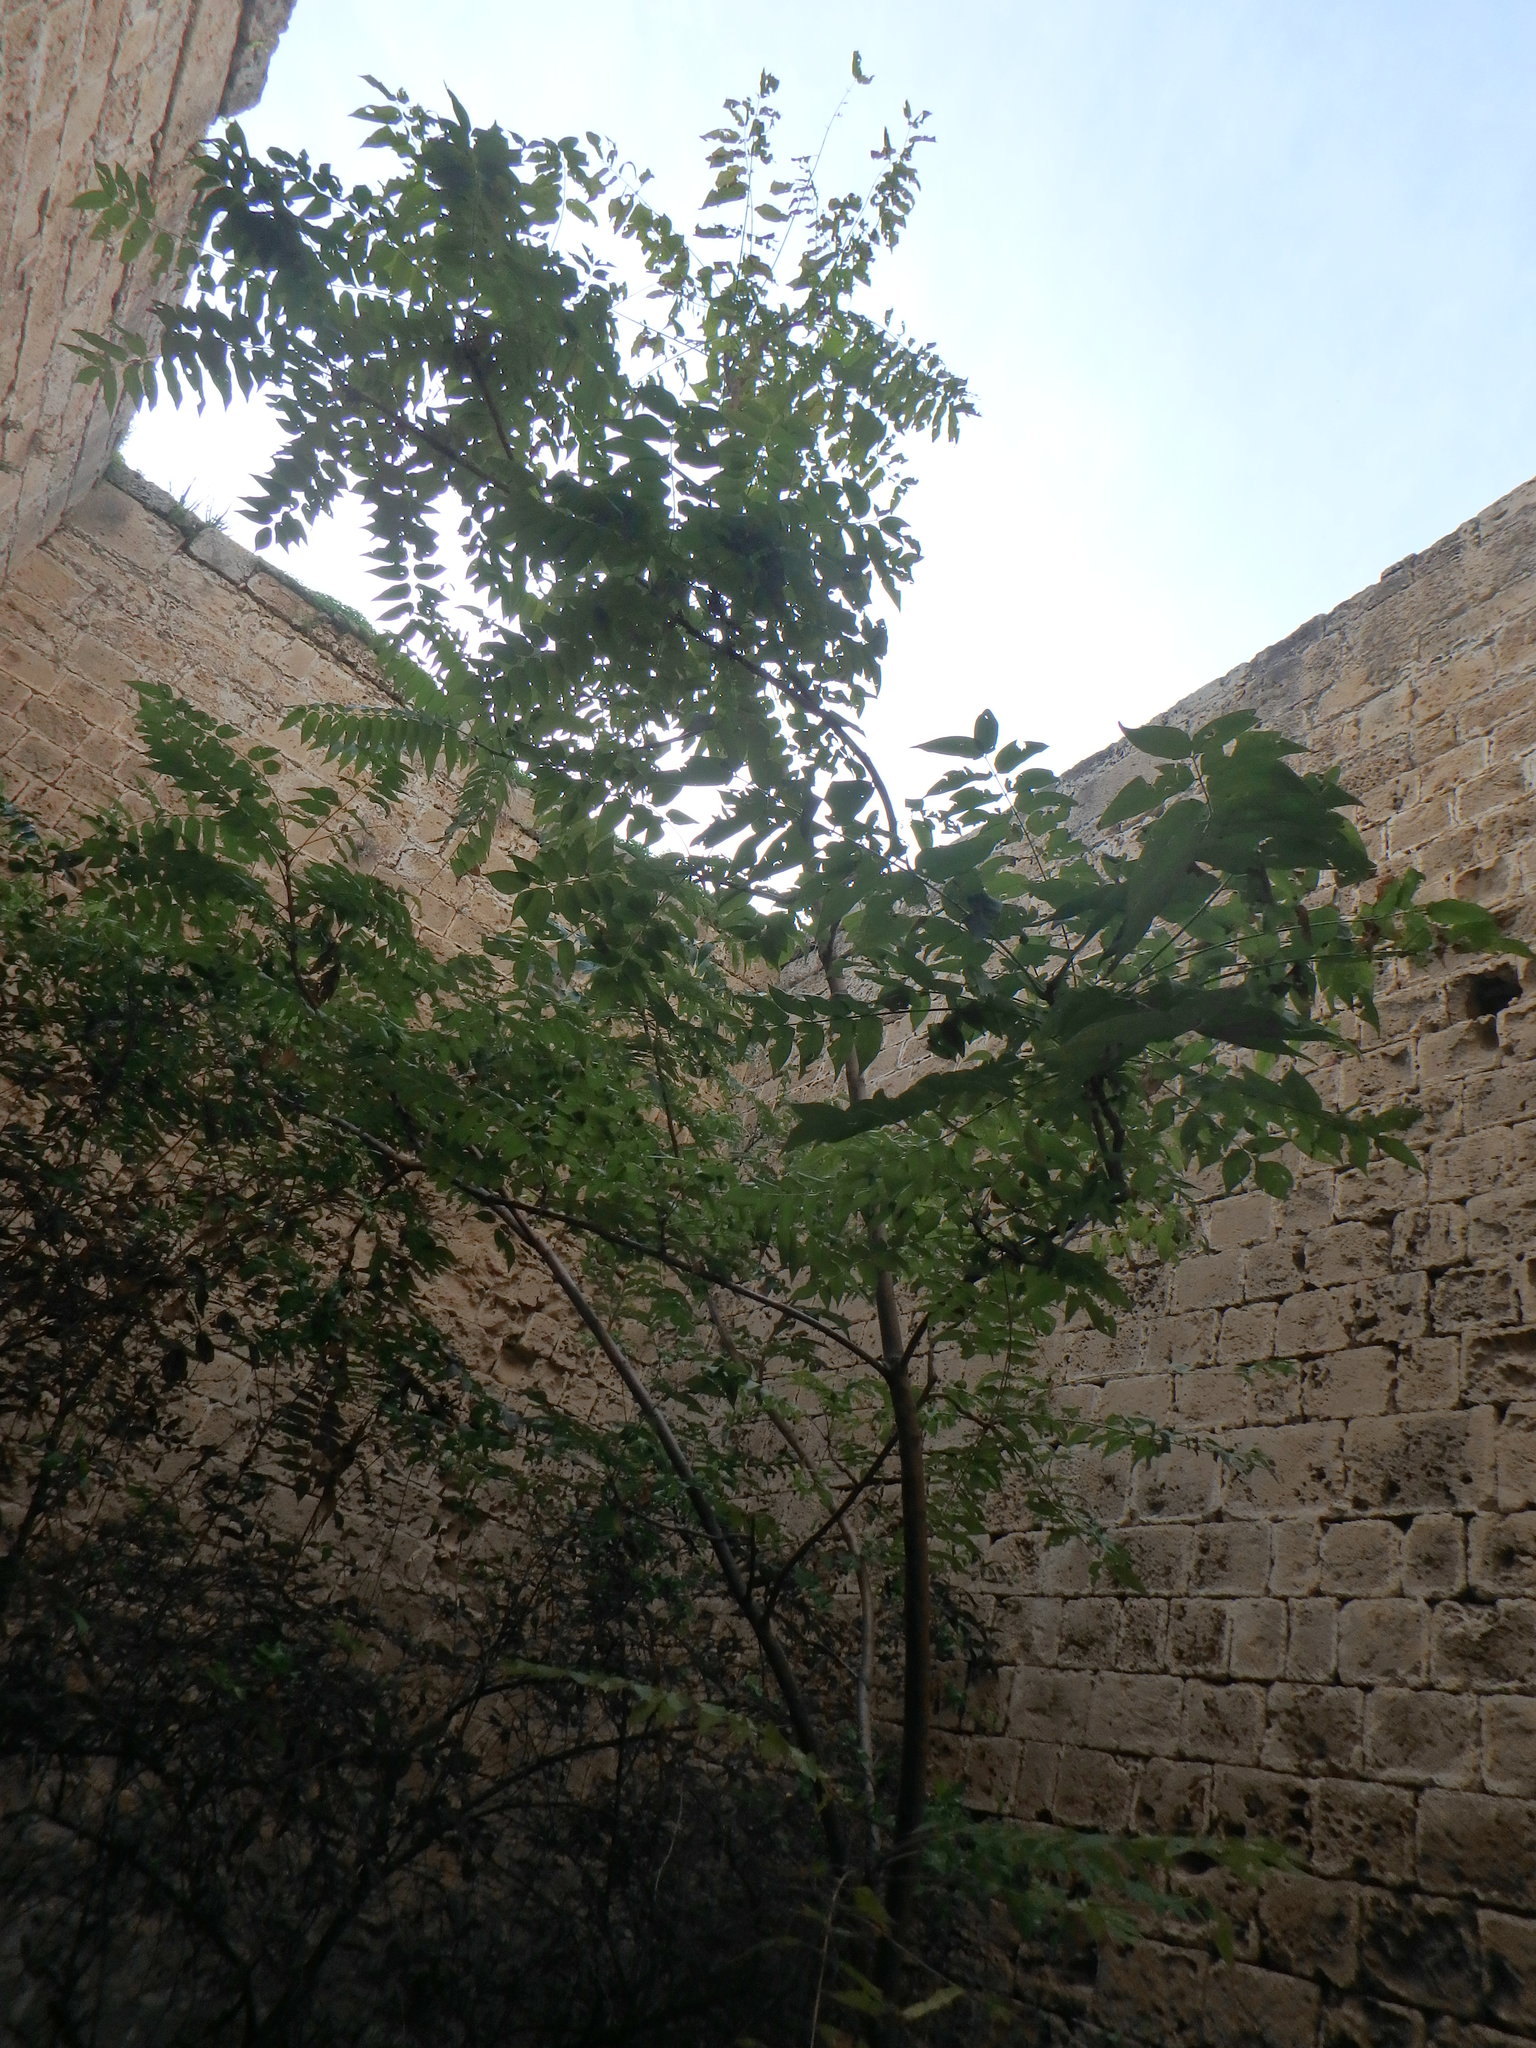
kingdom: Plantae
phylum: Tracheophyta
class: Magnoliopsida
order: Sapindales
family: Simaroubaceae
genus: Ailanthus
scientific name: Ailanthus altissima
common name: Tree-of-heaven
